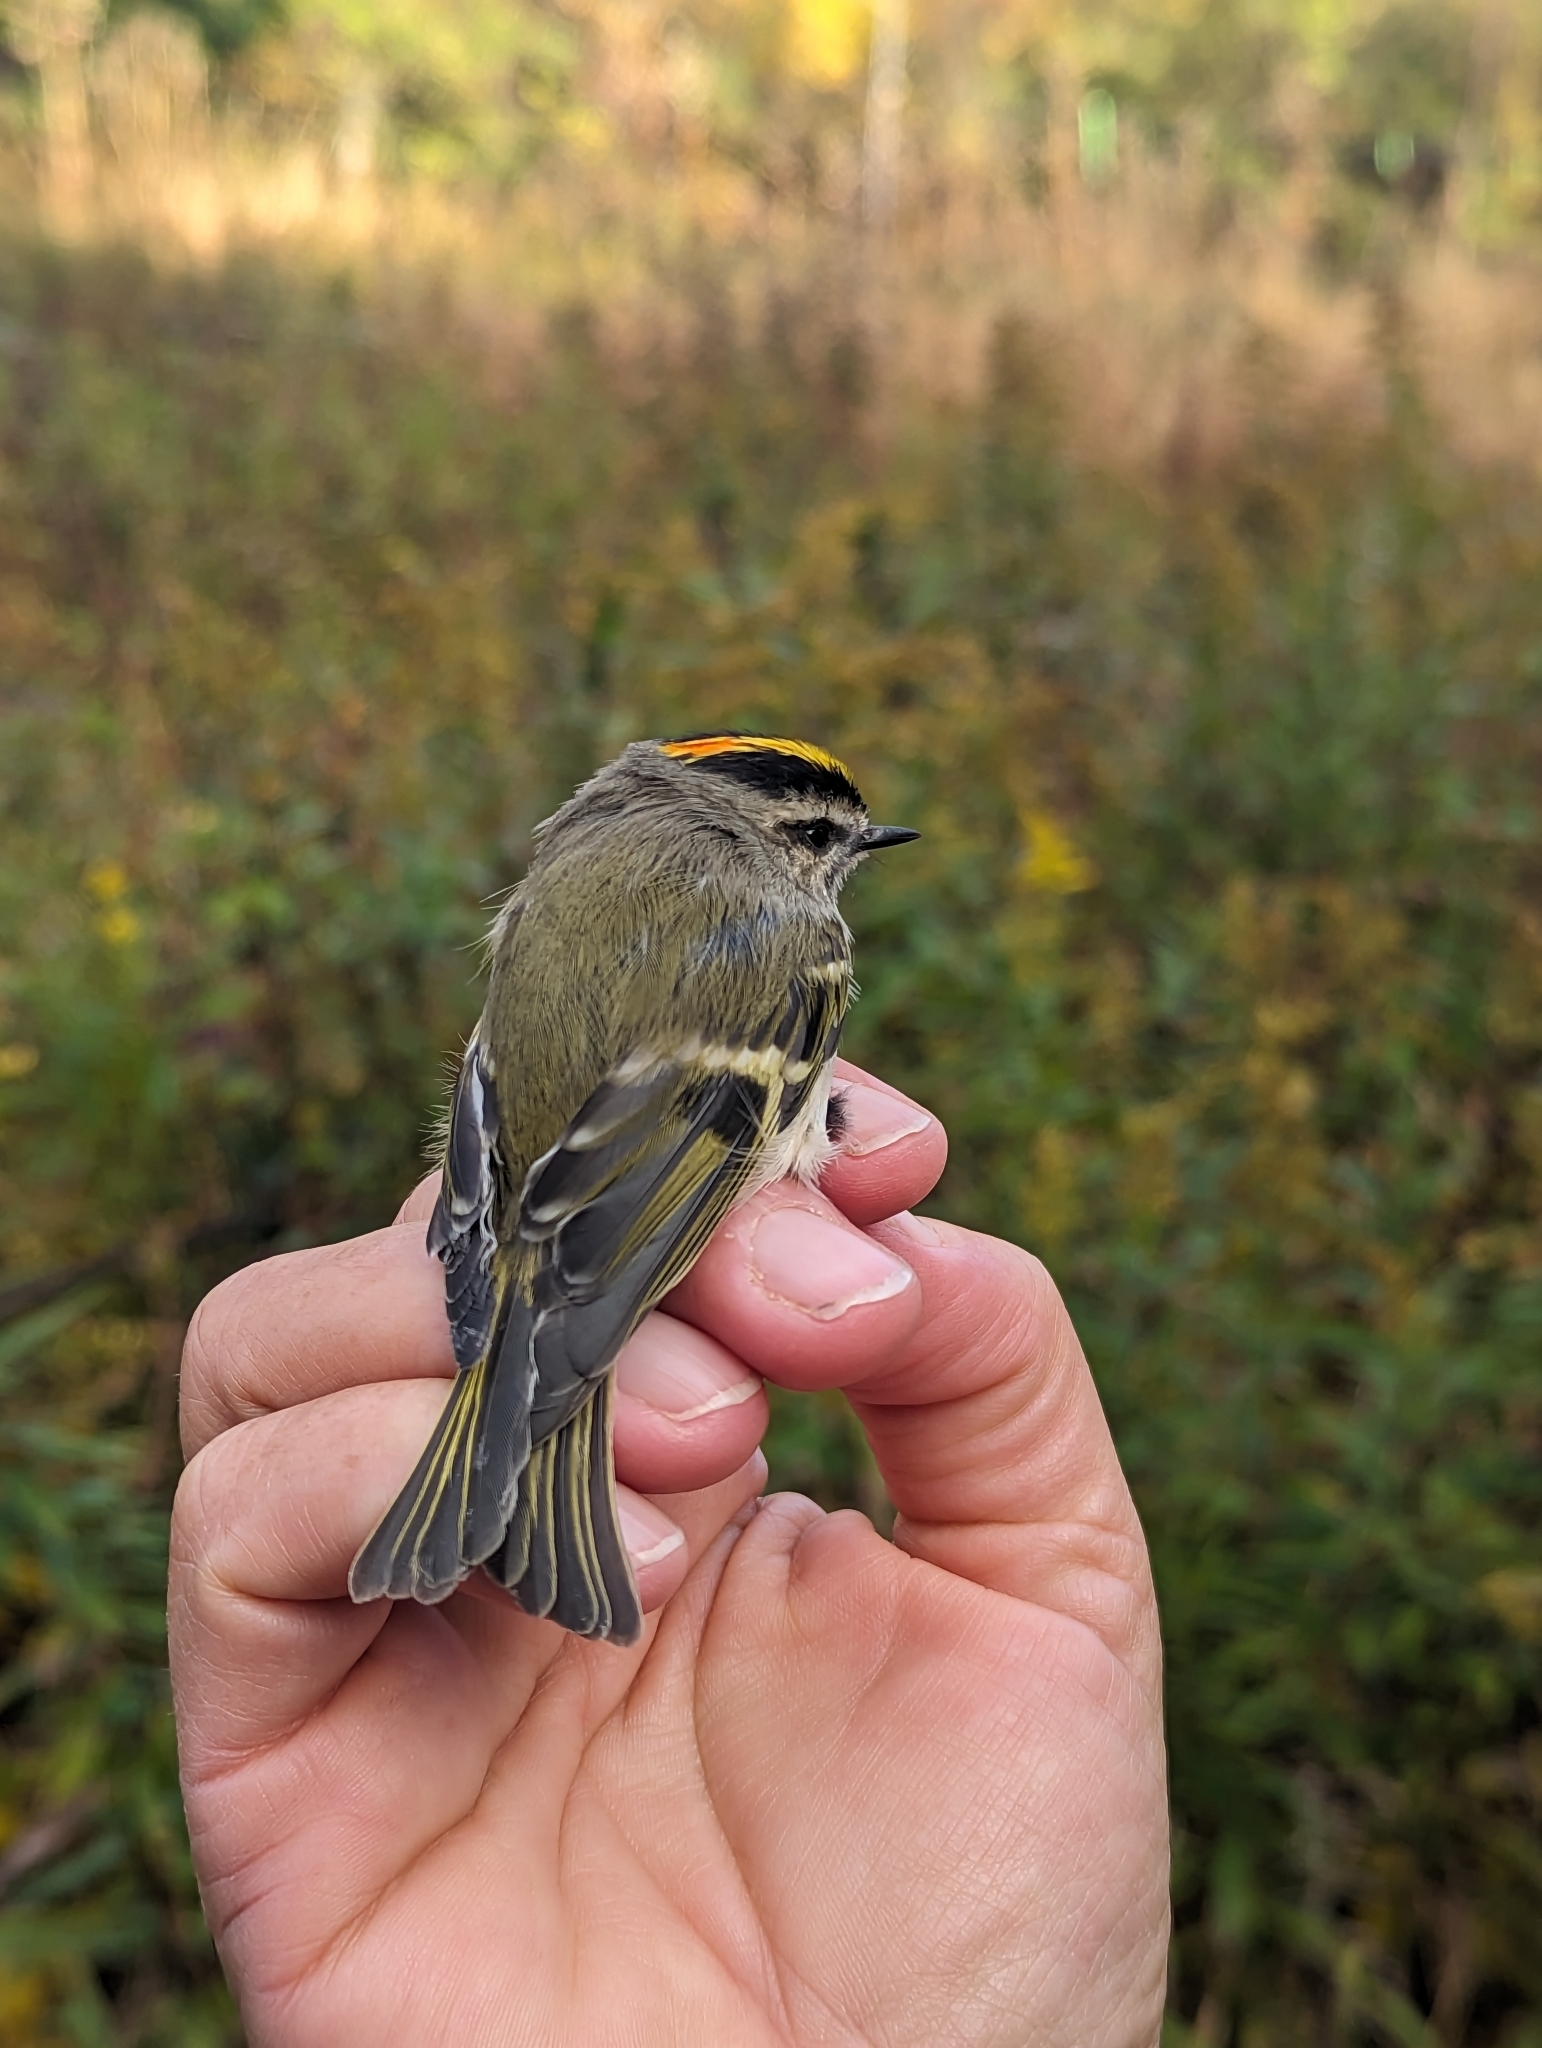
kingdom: Animalia
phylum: Chordata
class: Aves
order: Passeriformes
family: Regulidae
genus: Regulus
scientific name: Regulus satrapa
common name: Golden-crowned kinglet
